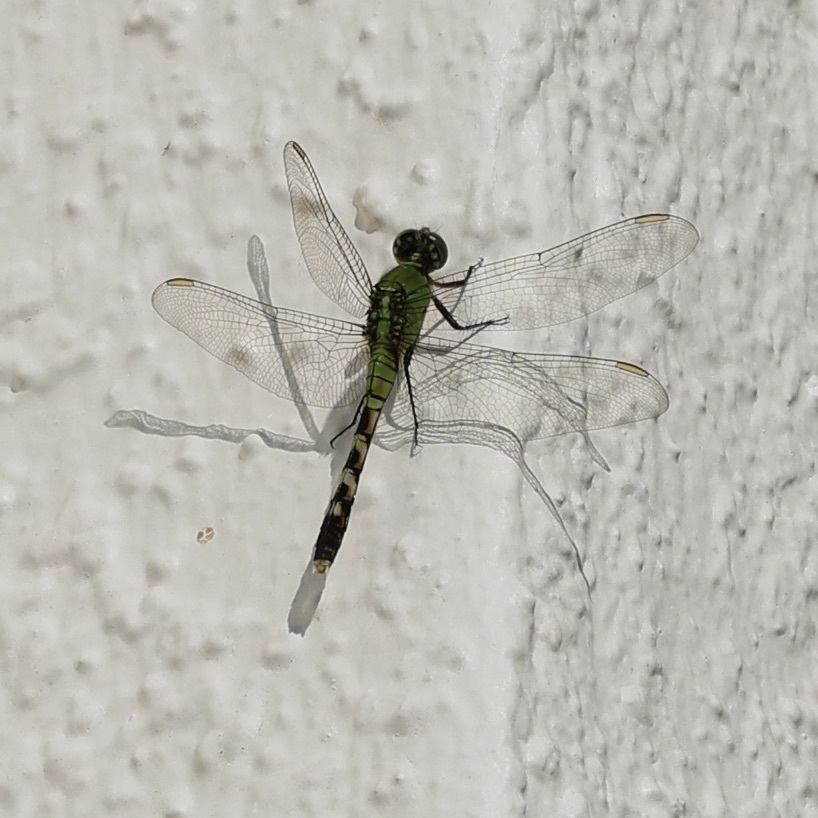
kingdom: Animalia
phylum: Arthropoda
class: Insecta
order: Odonata
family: Libellulidae
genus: Erythemis
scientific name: Erythemis simplicicollis
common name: Eastern pondhawk
